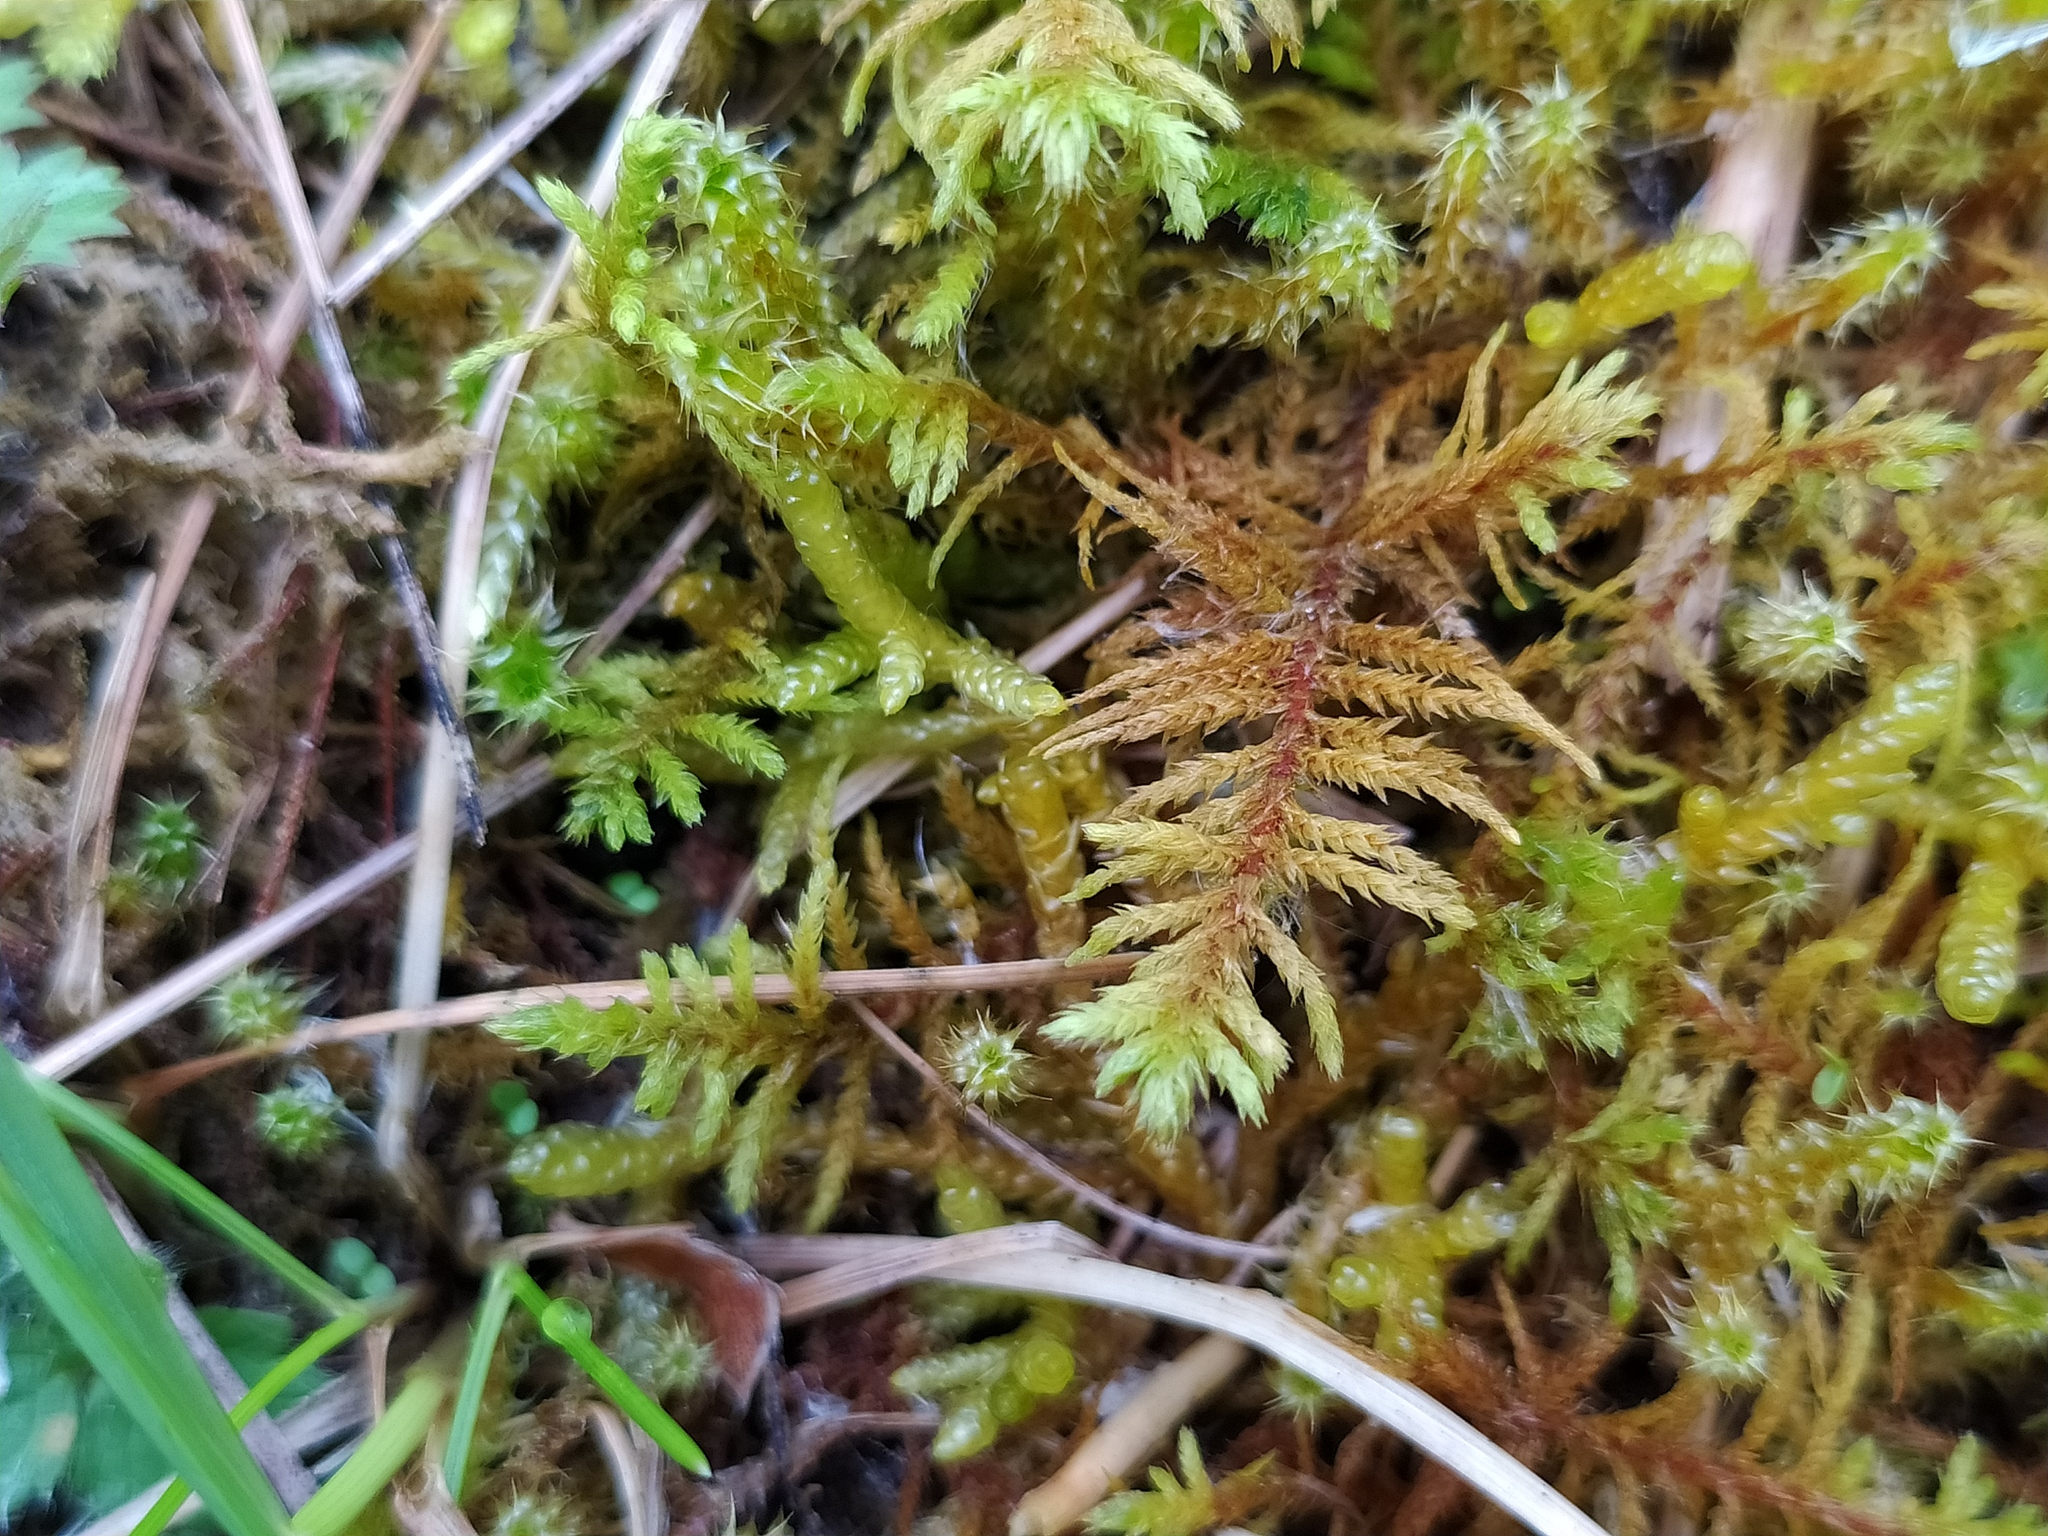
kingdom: Plantae
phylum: Bryophyta
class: Bryopsida
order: Hypnales
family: Thuidiaceae
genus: Abietinella
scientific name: Abietinella abietina
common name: Wiry fern moss
